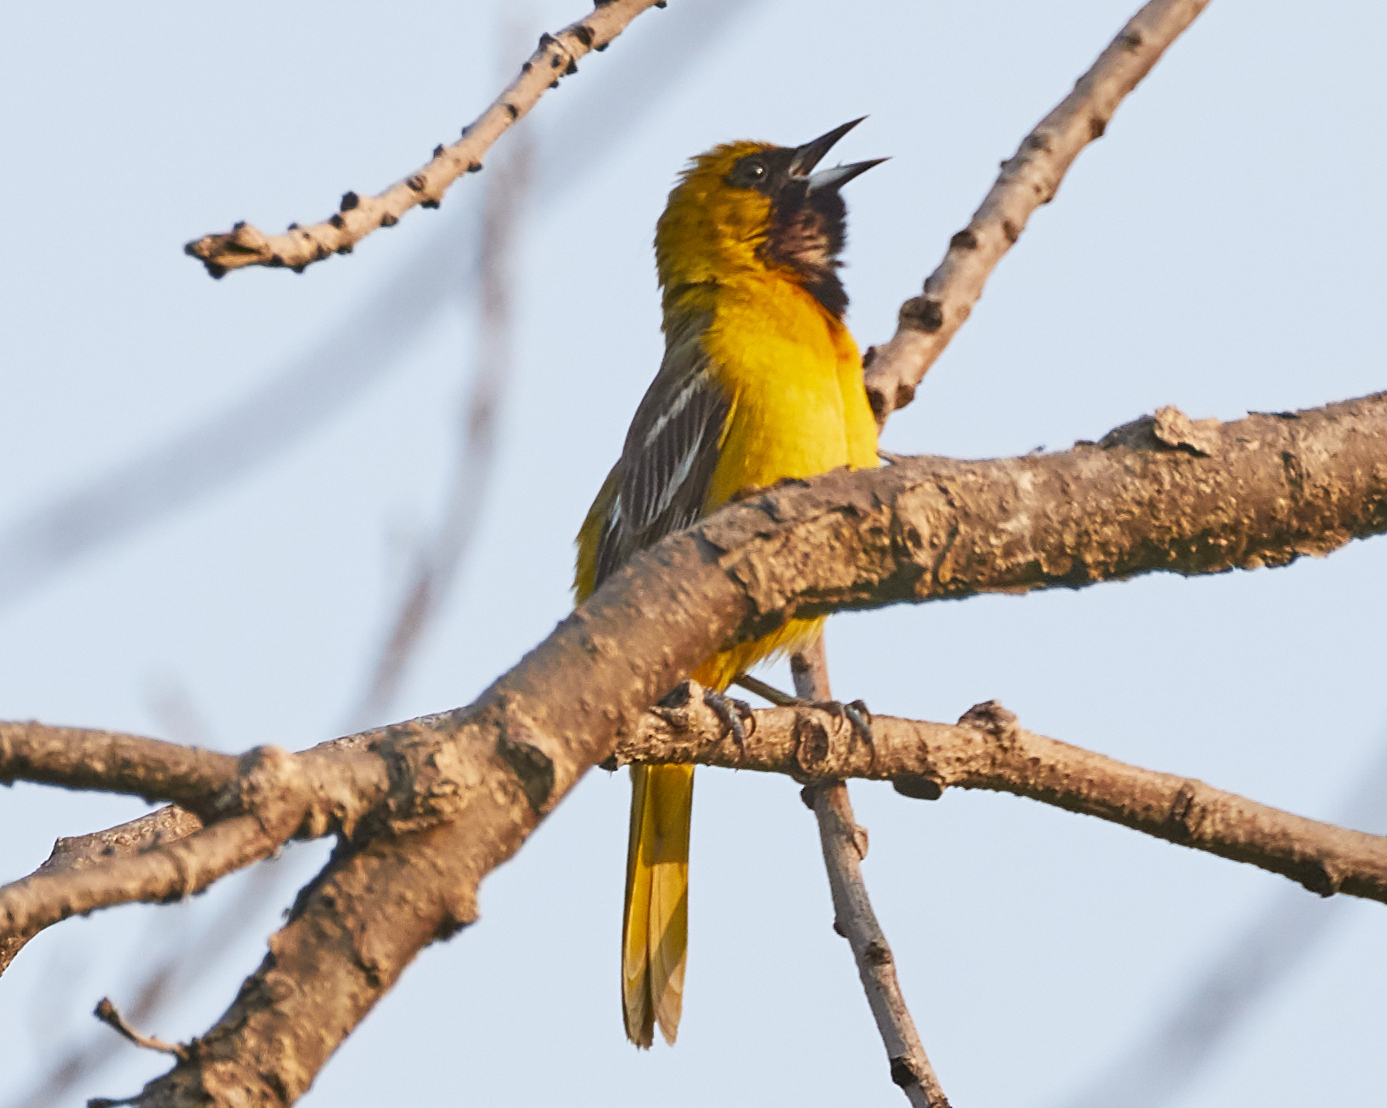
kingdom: Animalia
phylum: Chordata
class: Aves
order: Passeriformes
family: Icteridae
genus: Icterus
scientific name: Icterus spurius
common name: Orchard oriole
